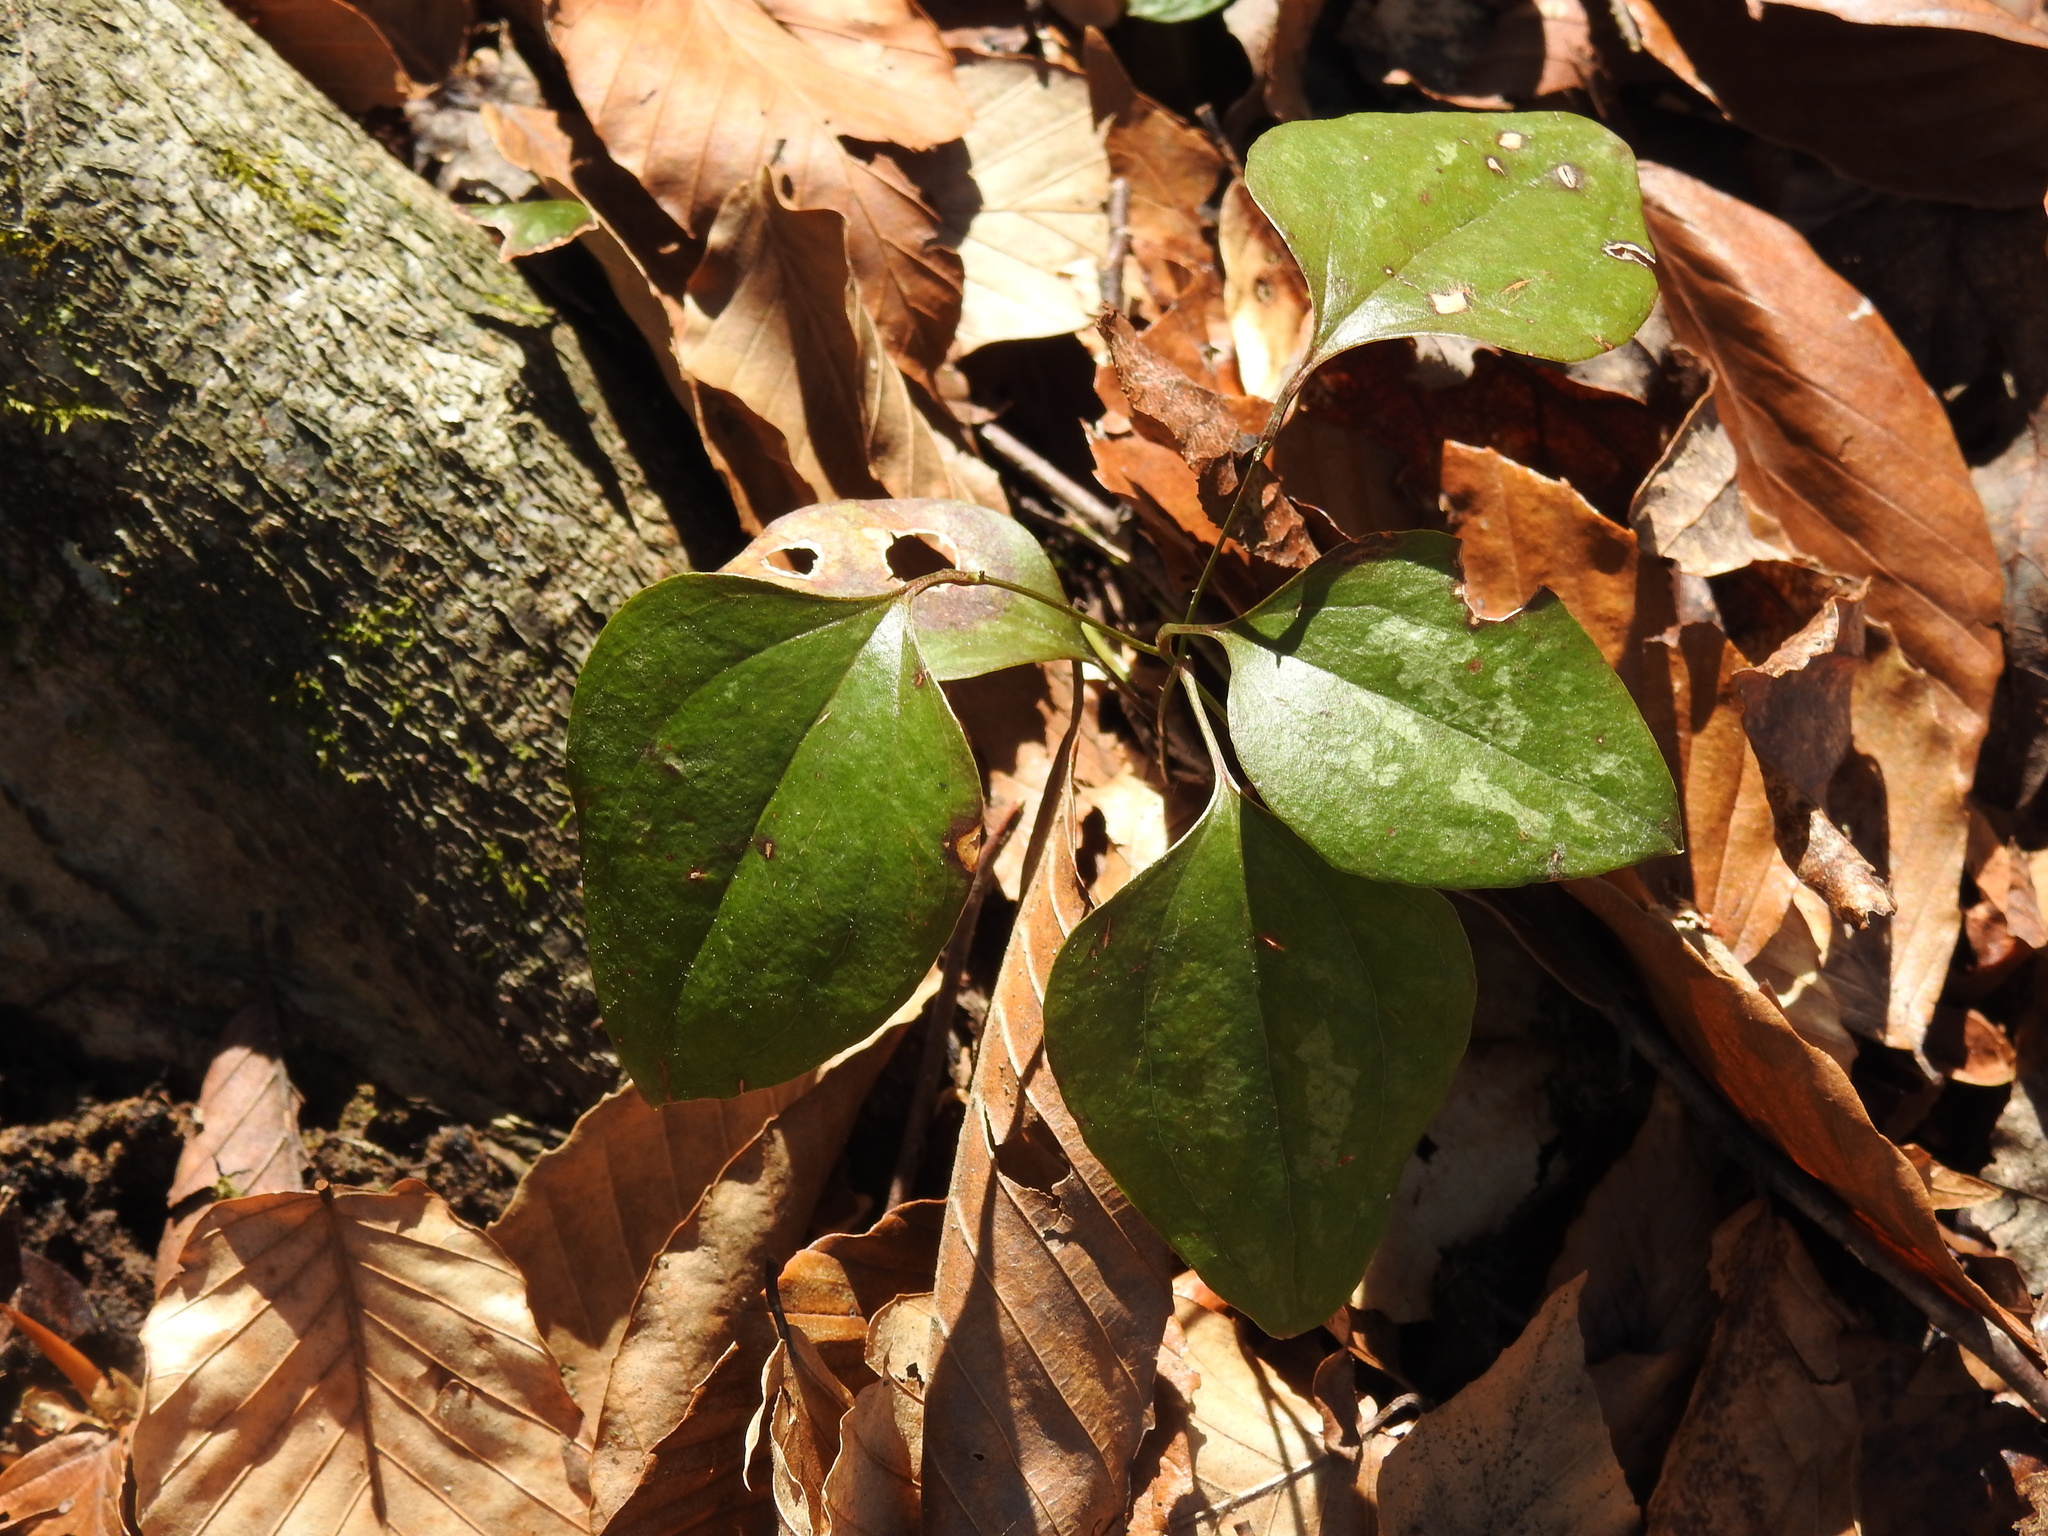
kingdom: Plantae
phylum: Tracheophyta
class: Liliopsida
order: Liliales
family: Smilacaceae
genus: Smilax
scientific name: Smilax glauca
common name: Cat greenbrier
